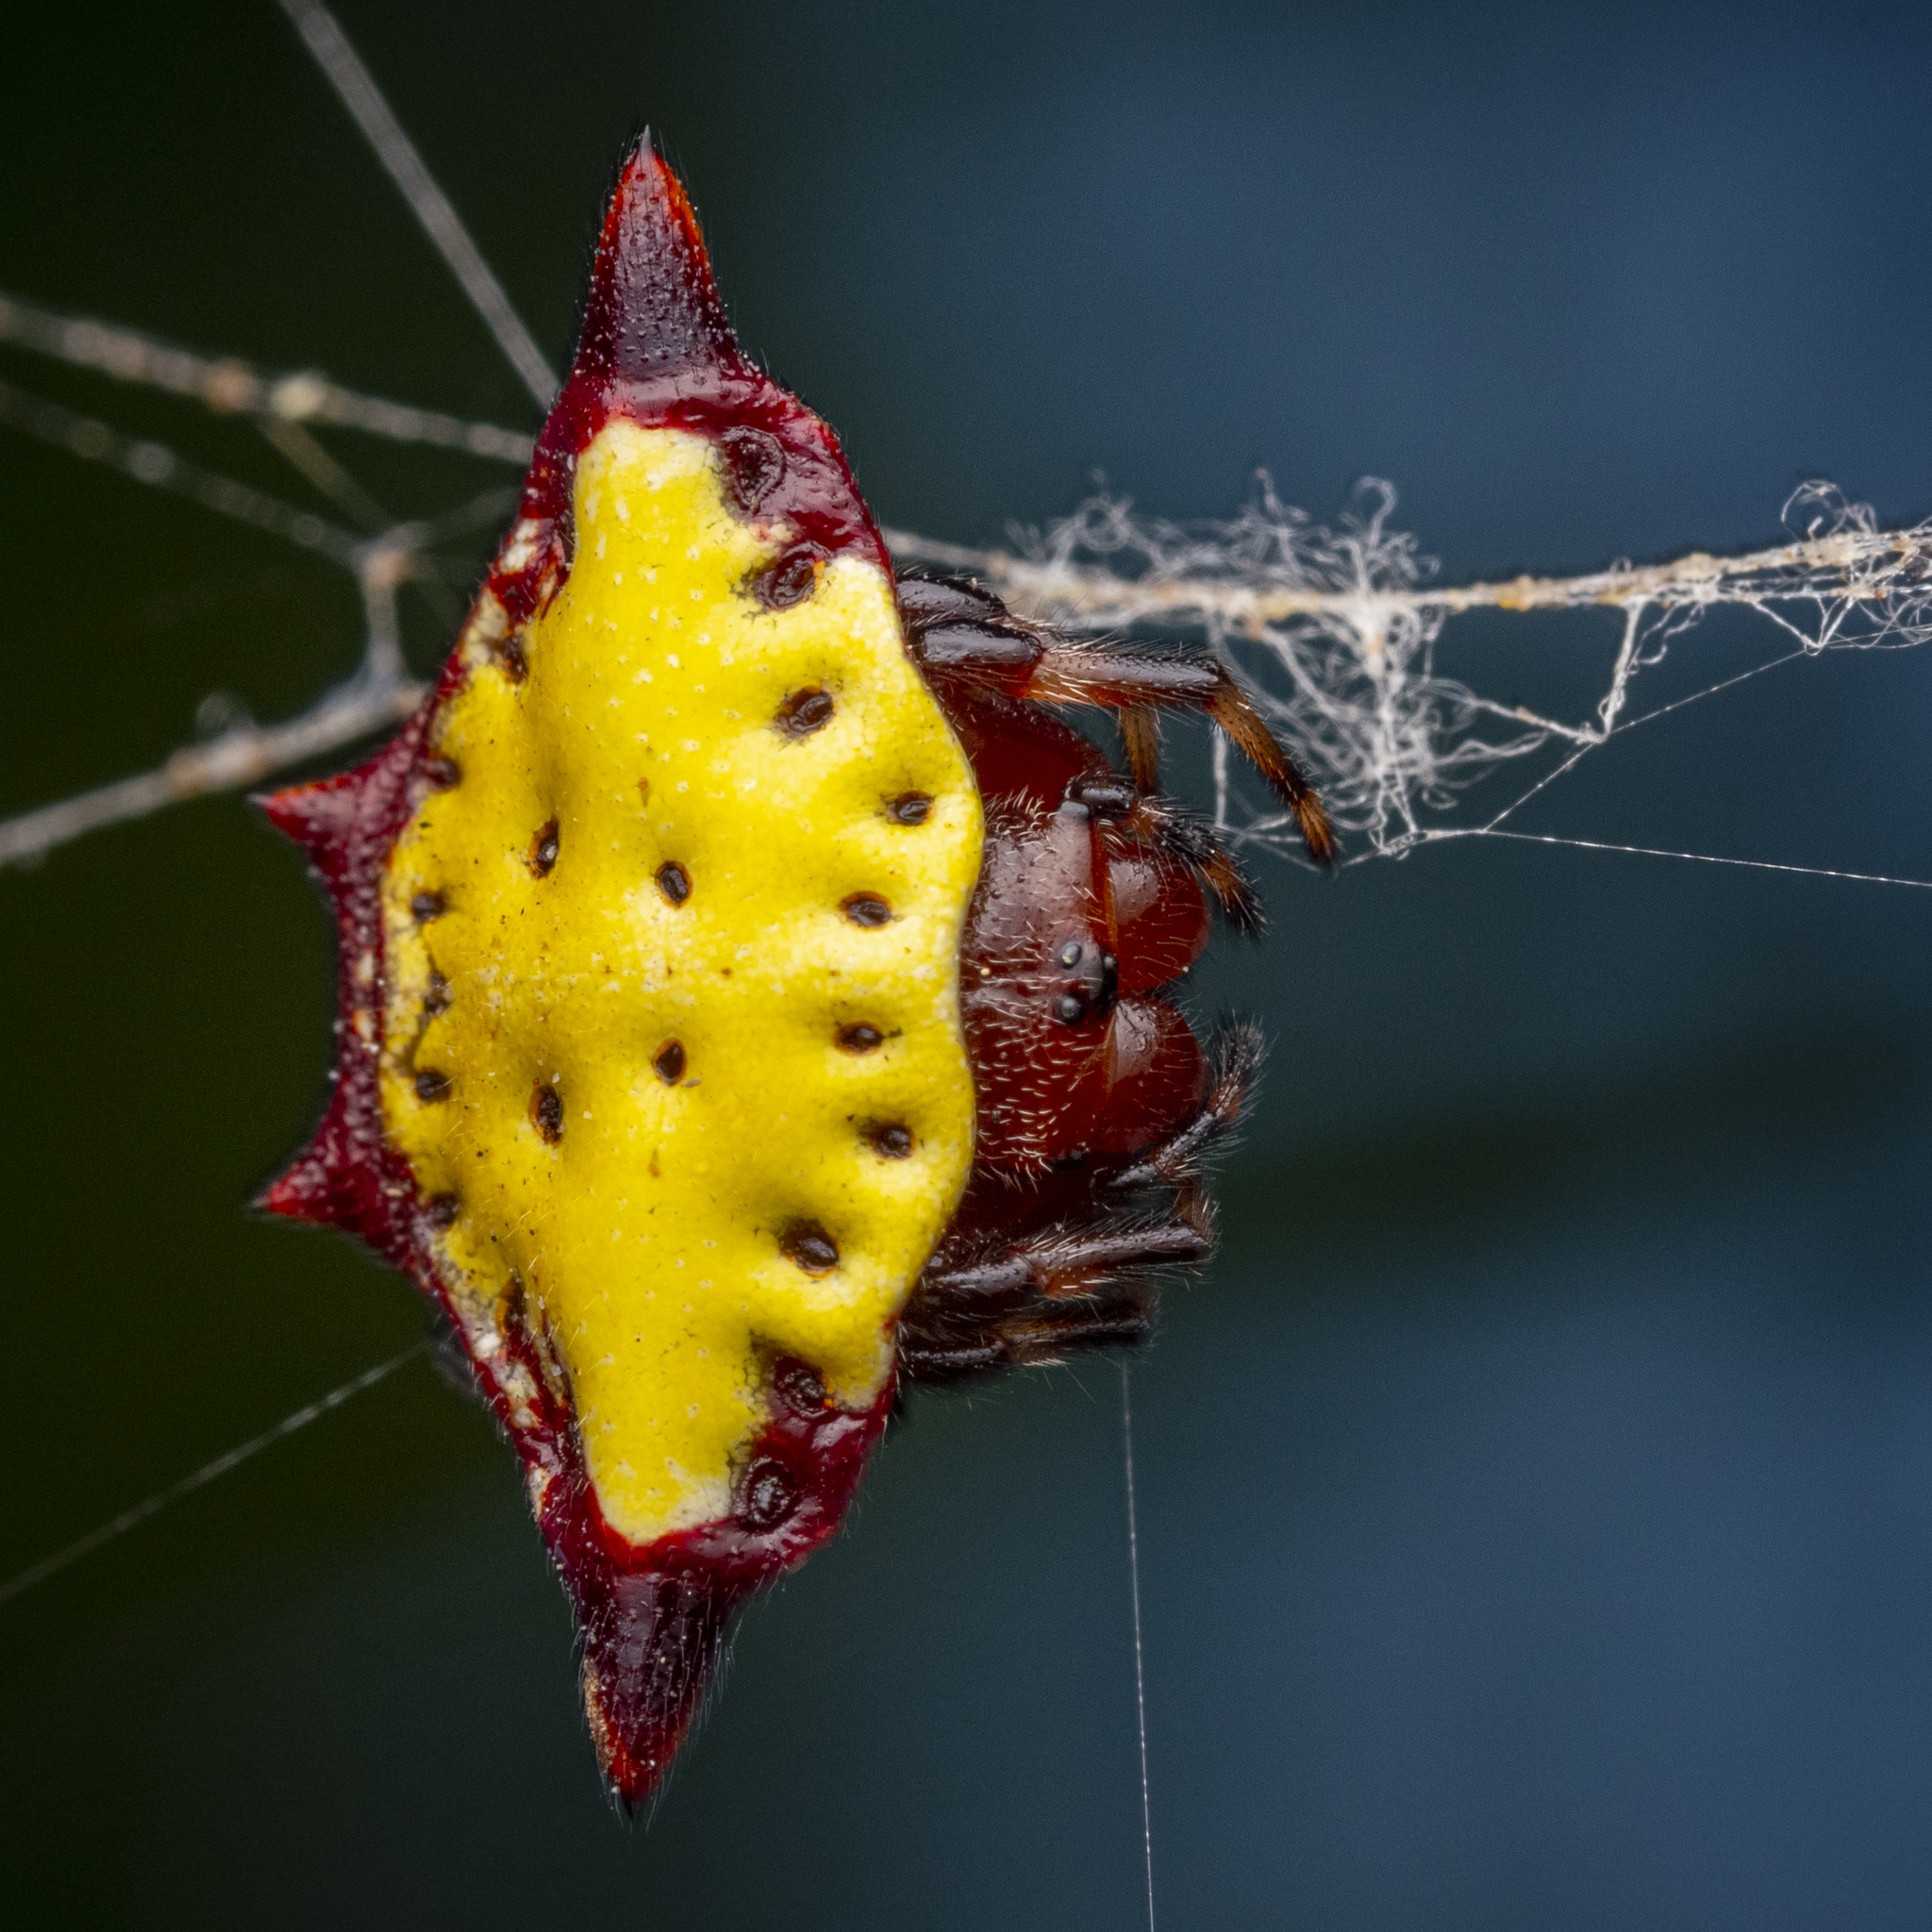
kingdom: Animalia
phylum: Arthropoda
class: Arachnida
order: Araneae
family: Araneidae
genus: Gasteracantha
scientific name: Gasteracantha cancriformis
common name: Orb weavers
